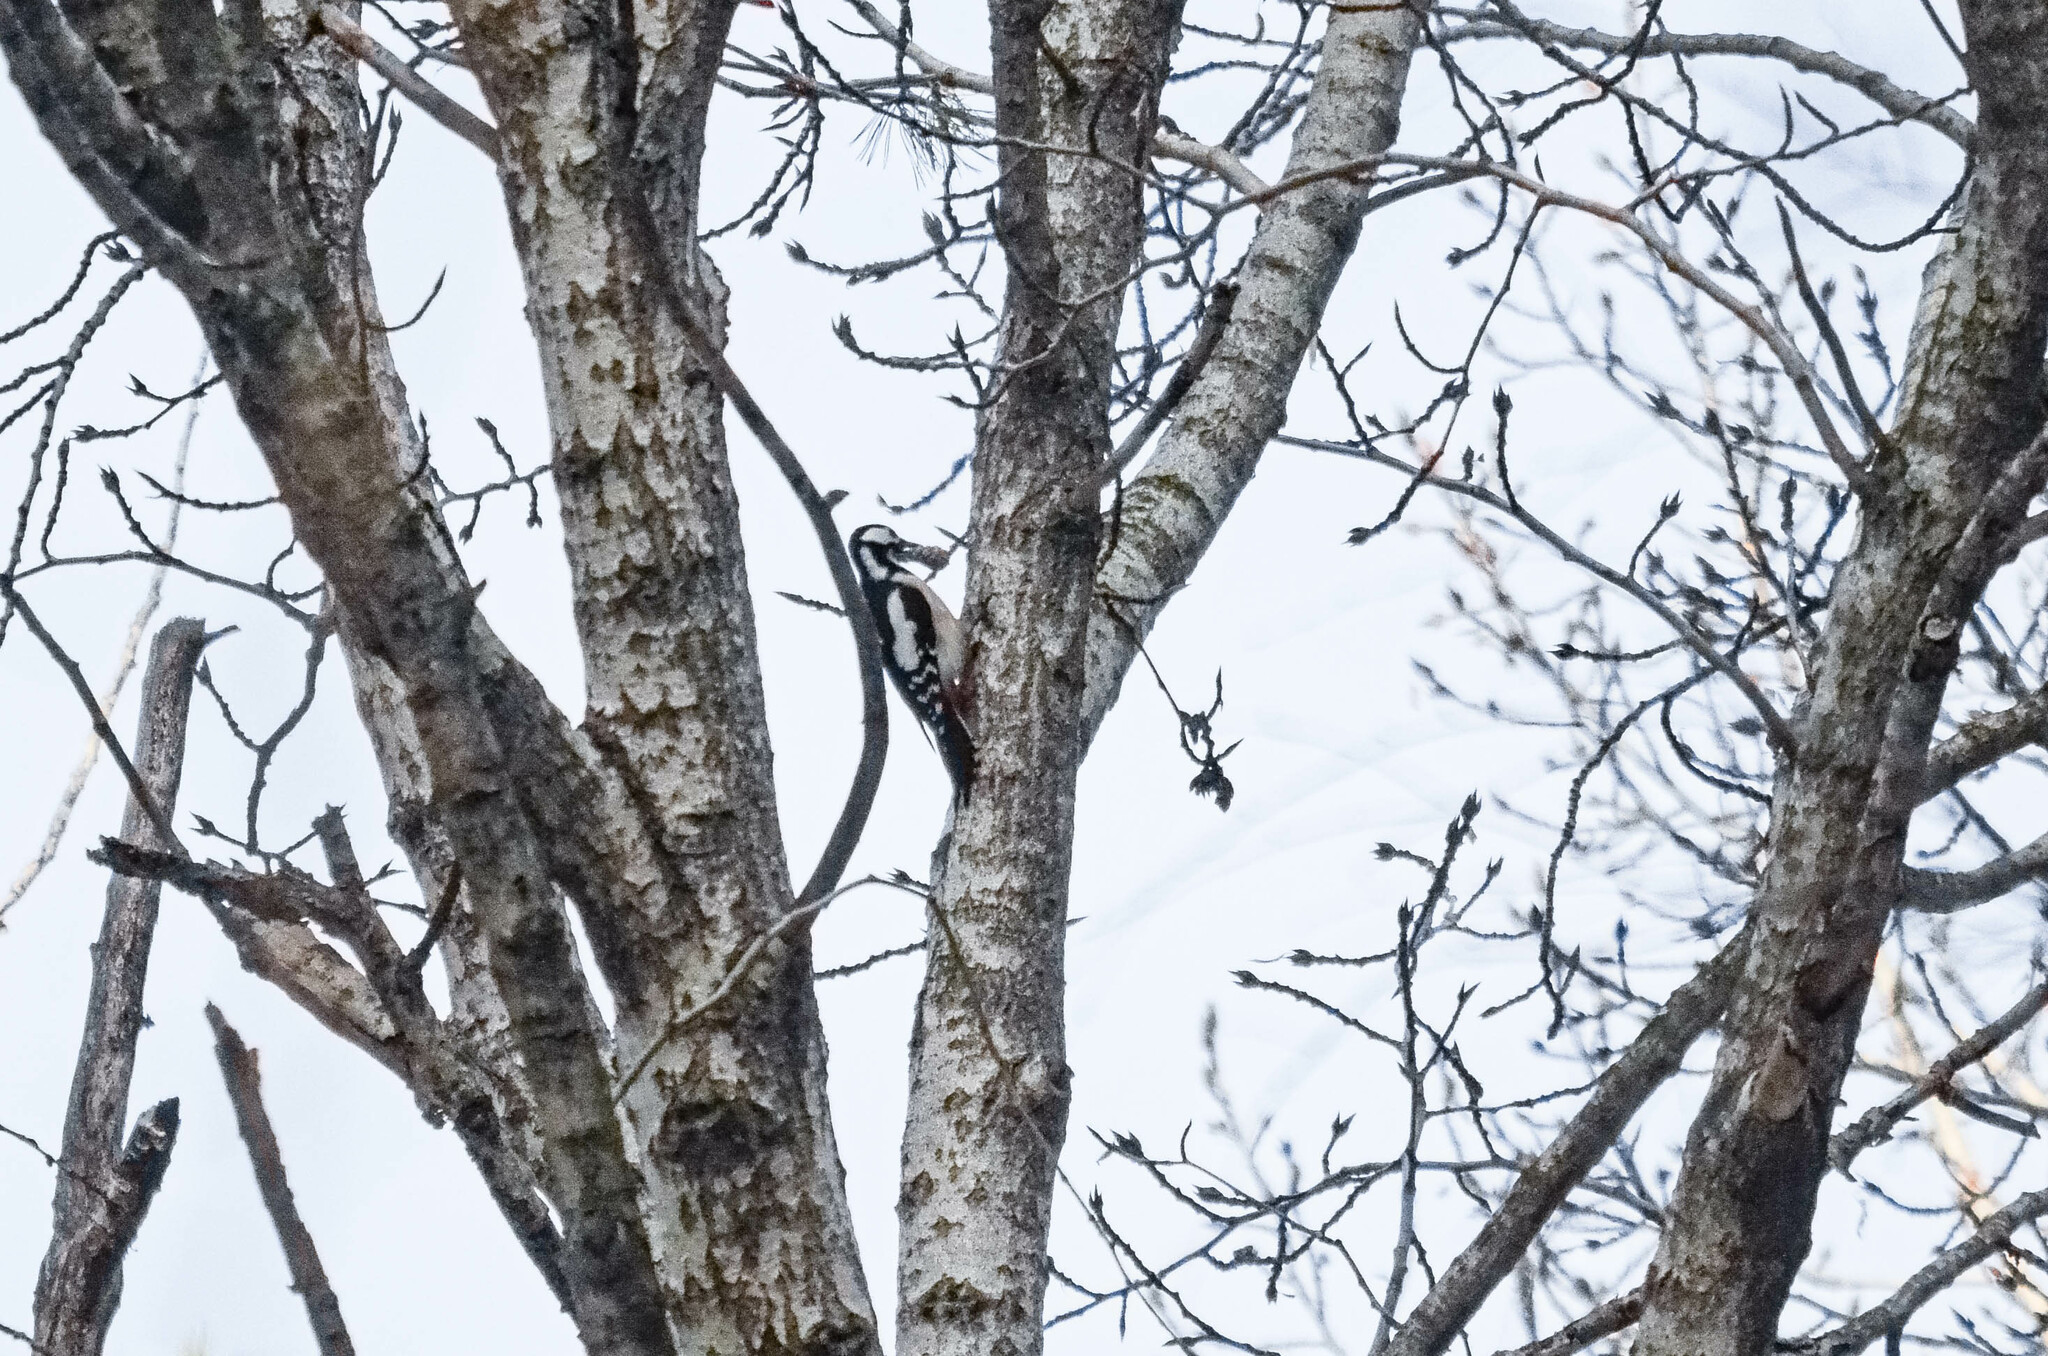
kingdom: Animalia
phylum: Chordata
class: Aves
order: Piciformes
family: Picidae
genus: Dendrocopos
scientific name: Dendrocopos major
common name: Great spotted woodpecker
